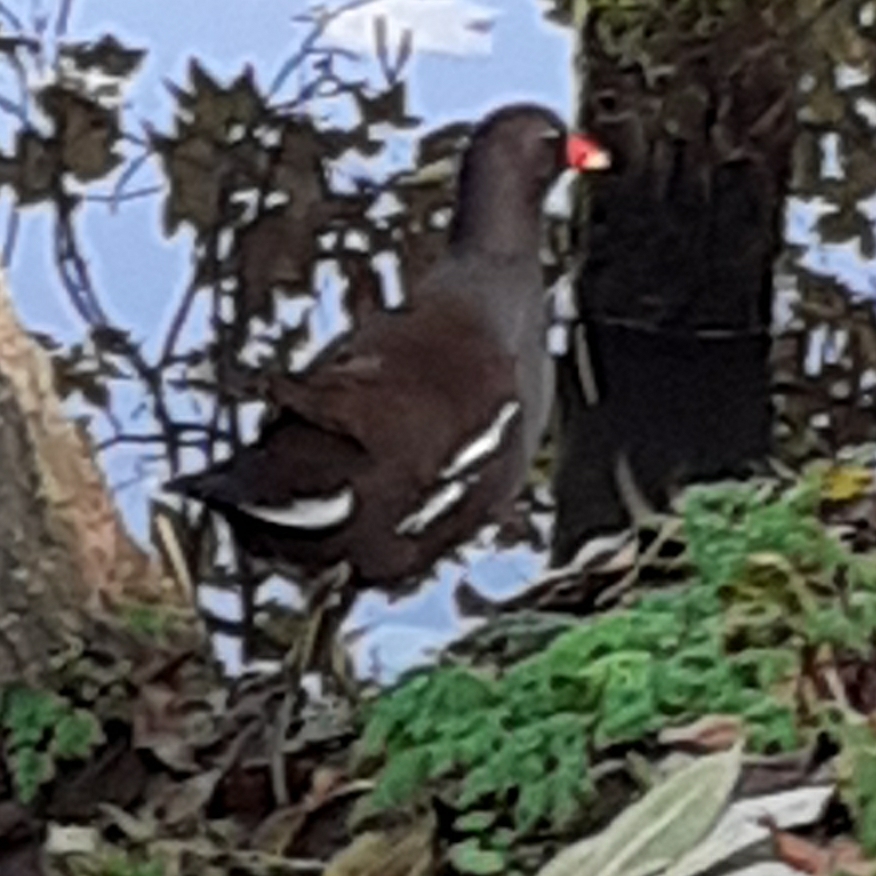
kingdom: Animalia
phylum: Chordata
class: Aves
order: Gruiformes
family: Rallidae
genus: Gallinula
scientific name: Gallinula chloropus
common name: Common moorhen
